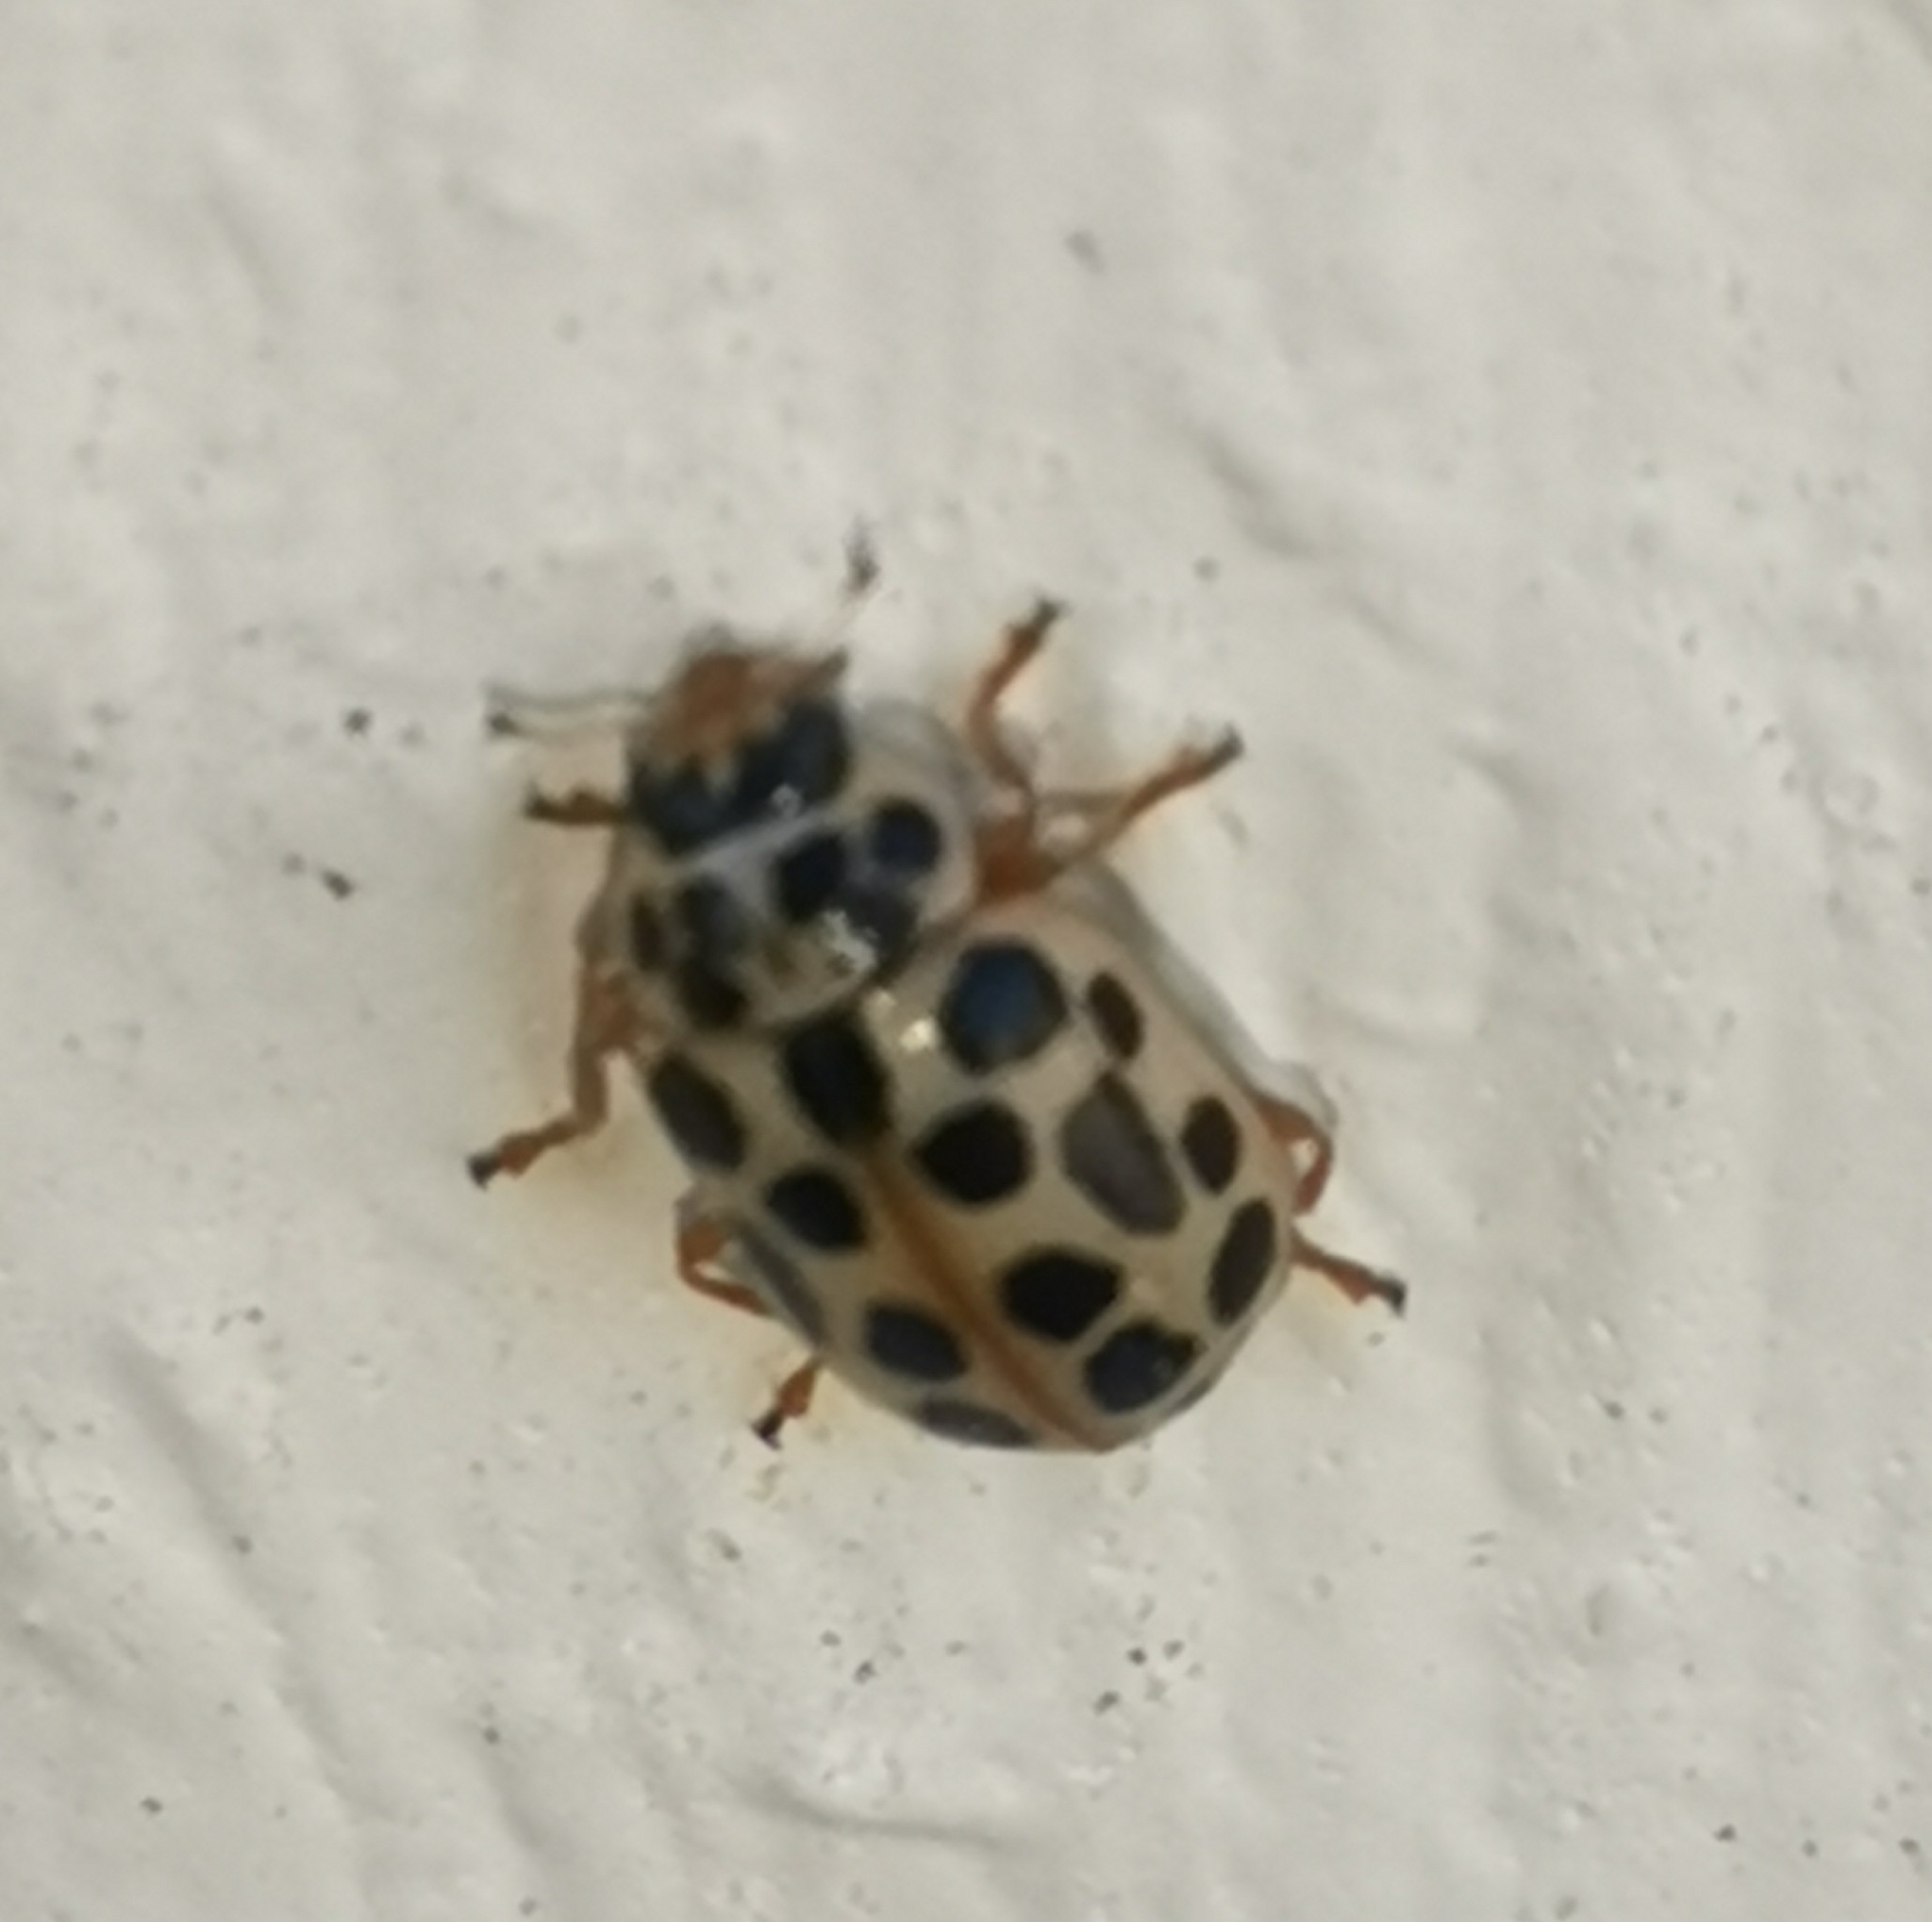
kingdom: Animalia
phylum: Arthropoda
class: Insecta
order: Coleoptera
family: Coccinellidae
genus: Anisosticta
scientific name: Anisosticta novemdecimpunctata
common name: Water ladybird
